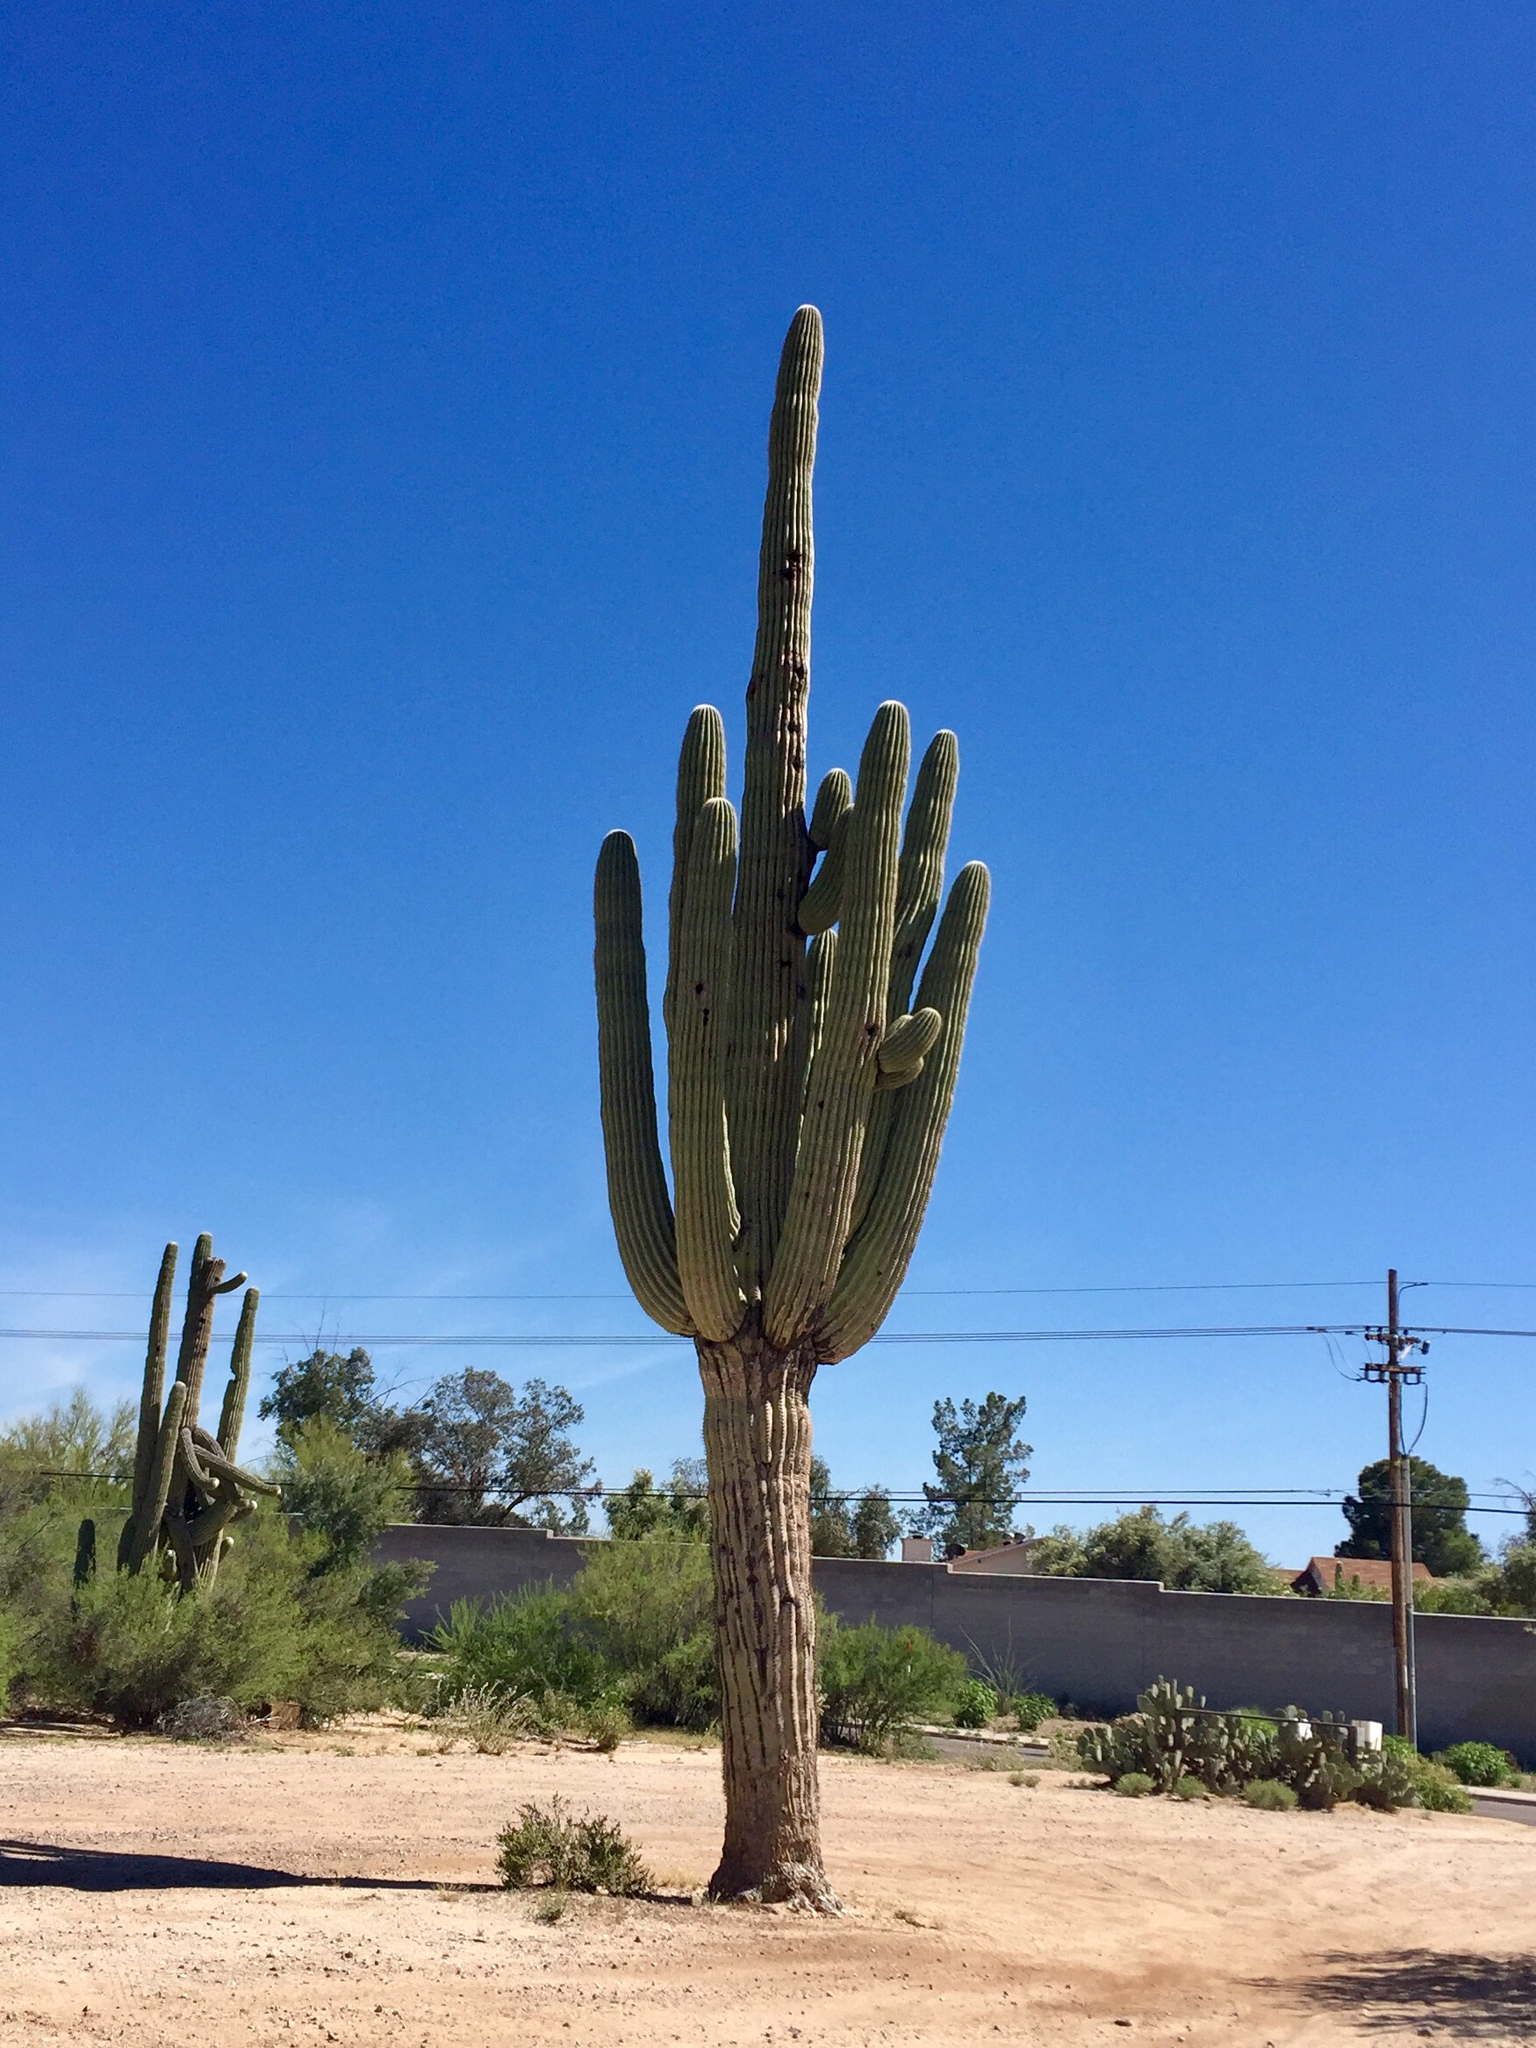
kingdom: Plantae
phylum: Tracheophyta
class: Magnoliopsida
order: Caryophyllales
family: Cactaceae
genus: Carnegiea
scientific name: Carnegiea gigantea
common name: Saguaro
